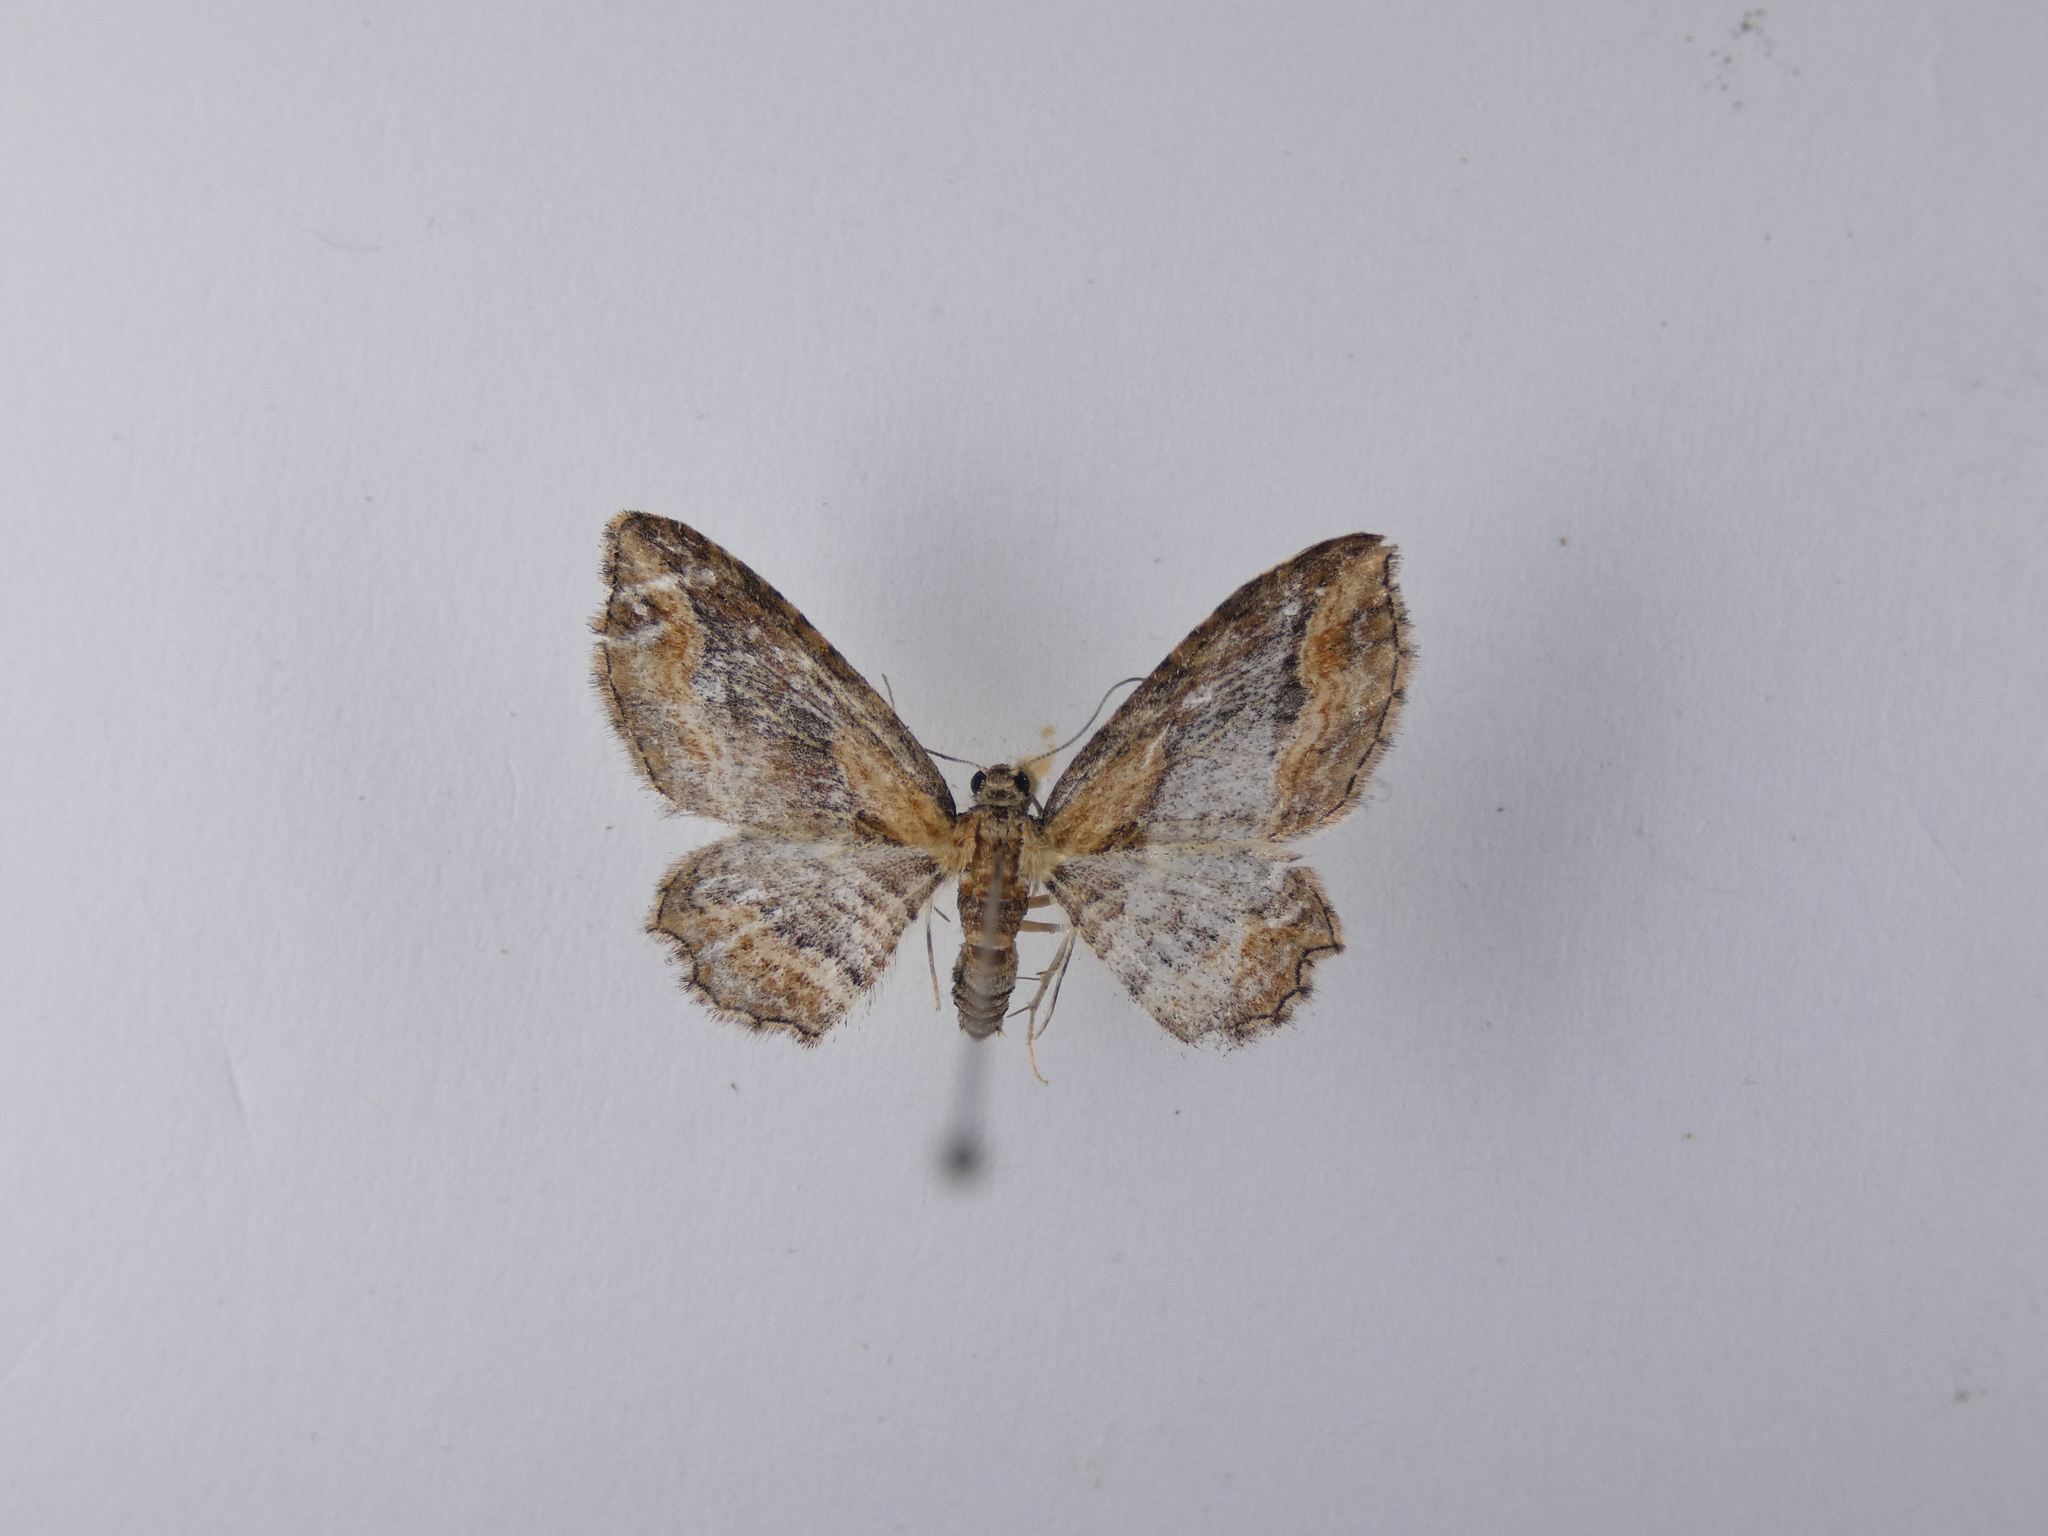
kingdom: Animalia
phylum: Arthropoda
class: Insecta
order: Lepidoptera
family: Geometridae
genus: Chloroclystis
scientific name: Chloroclystis filata
